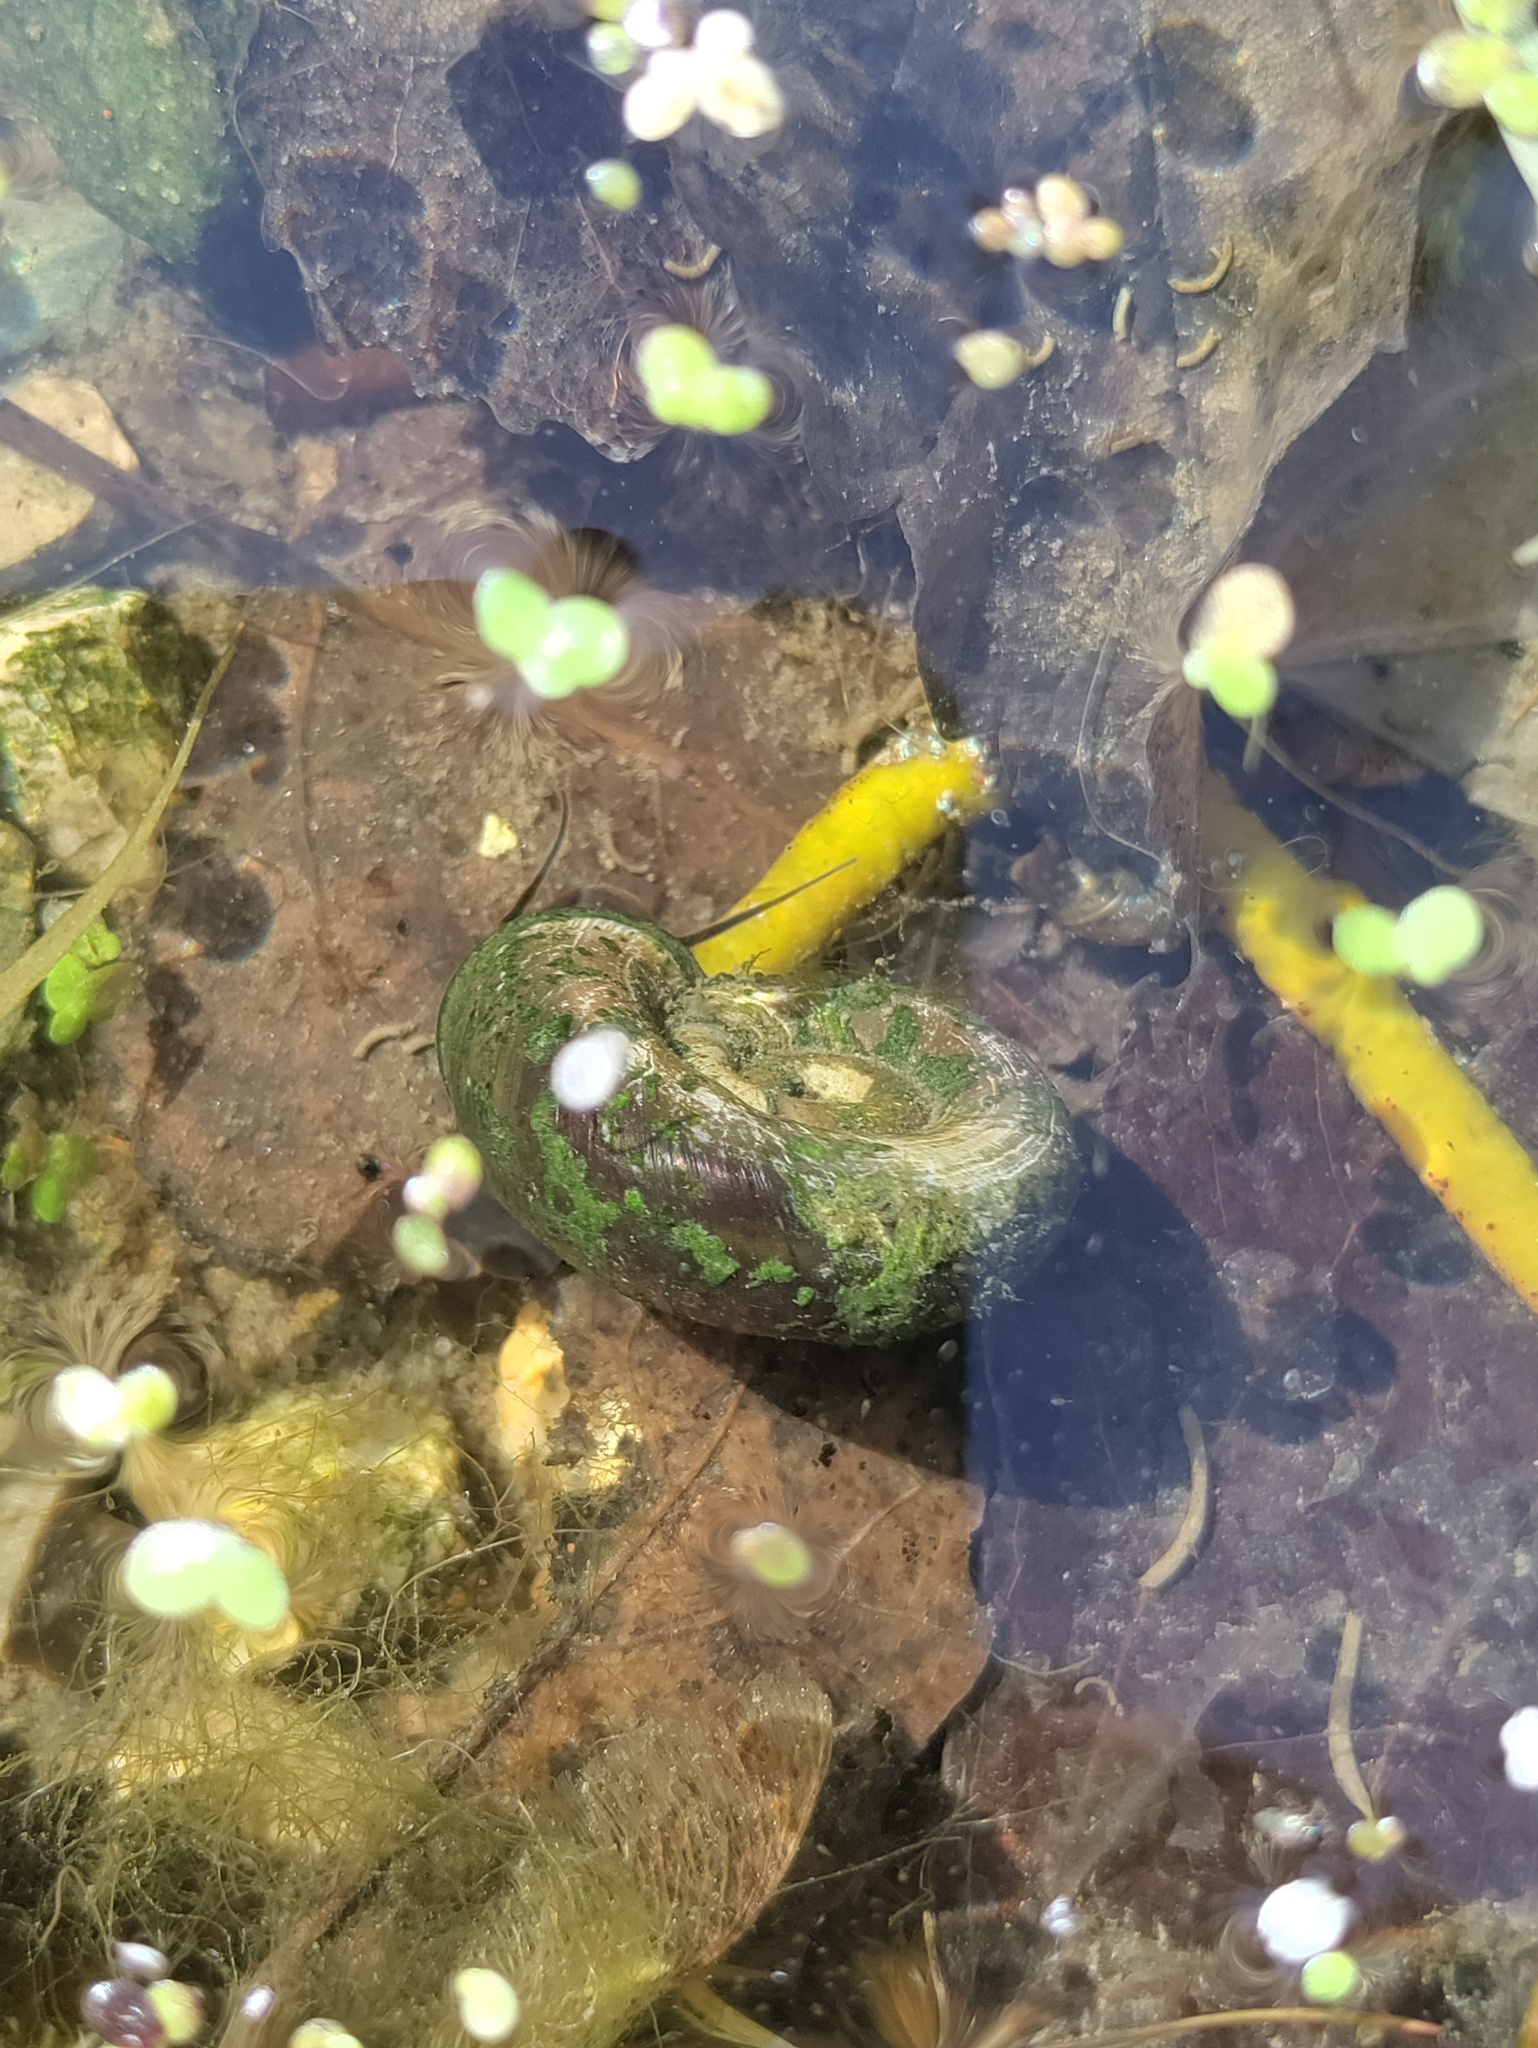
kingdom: Animalia
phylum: Mollusca
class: Gastropoda
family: Planorbidae
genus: Planorbarius
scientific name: Planorbarius corneus
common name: Great ramshorn
